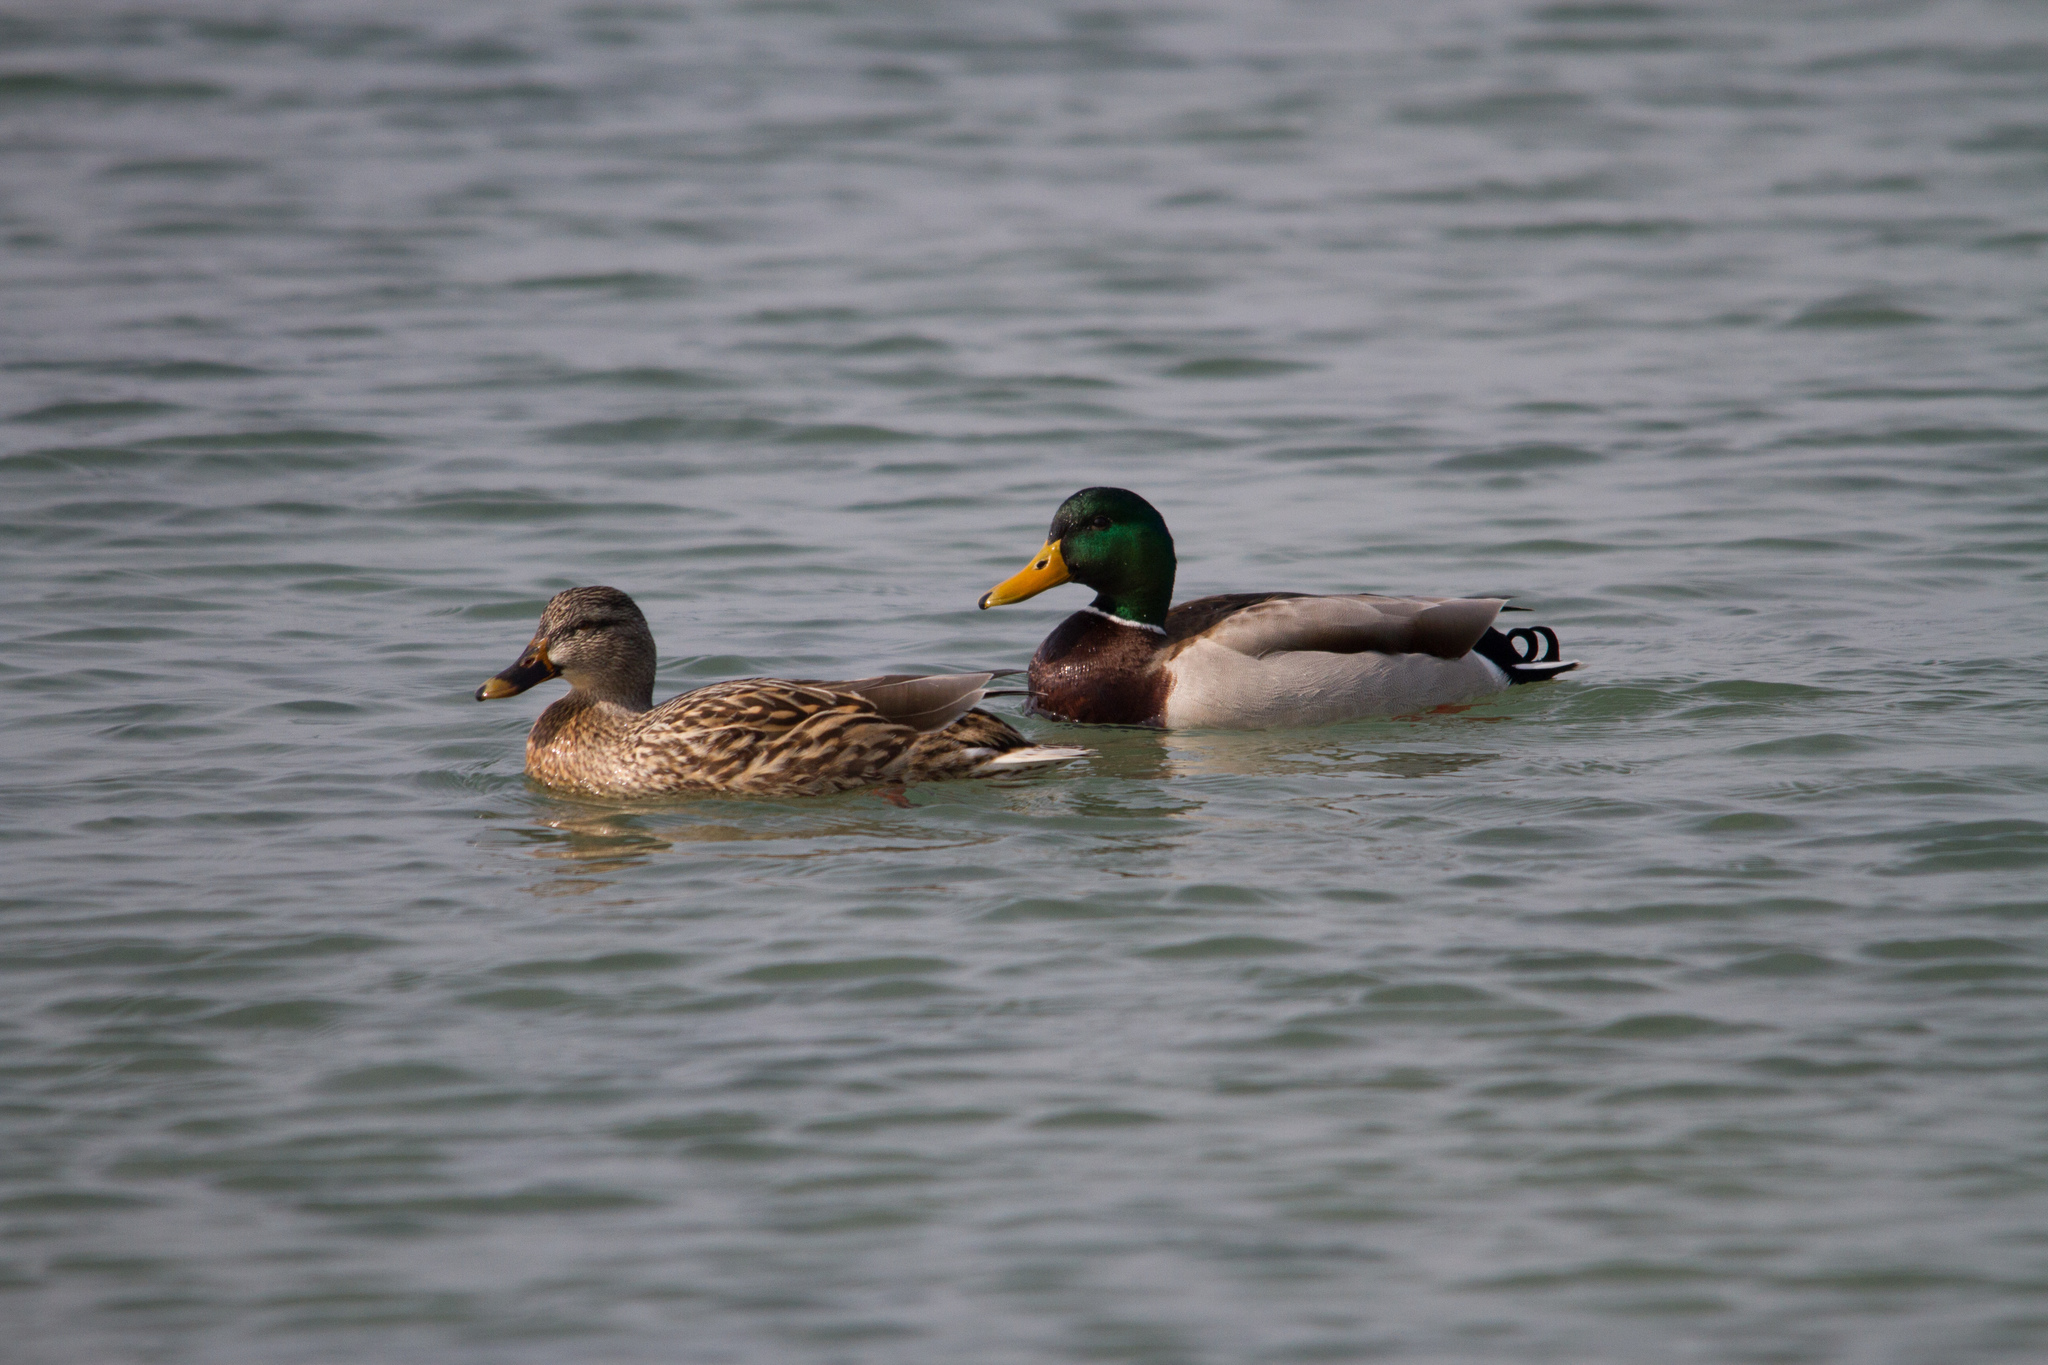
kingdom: Animalia
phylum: Chordata
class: Aves
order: Anseriformes
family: Anatidae
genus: Anas
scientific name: Anas platyrhynchos
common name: Mallard
